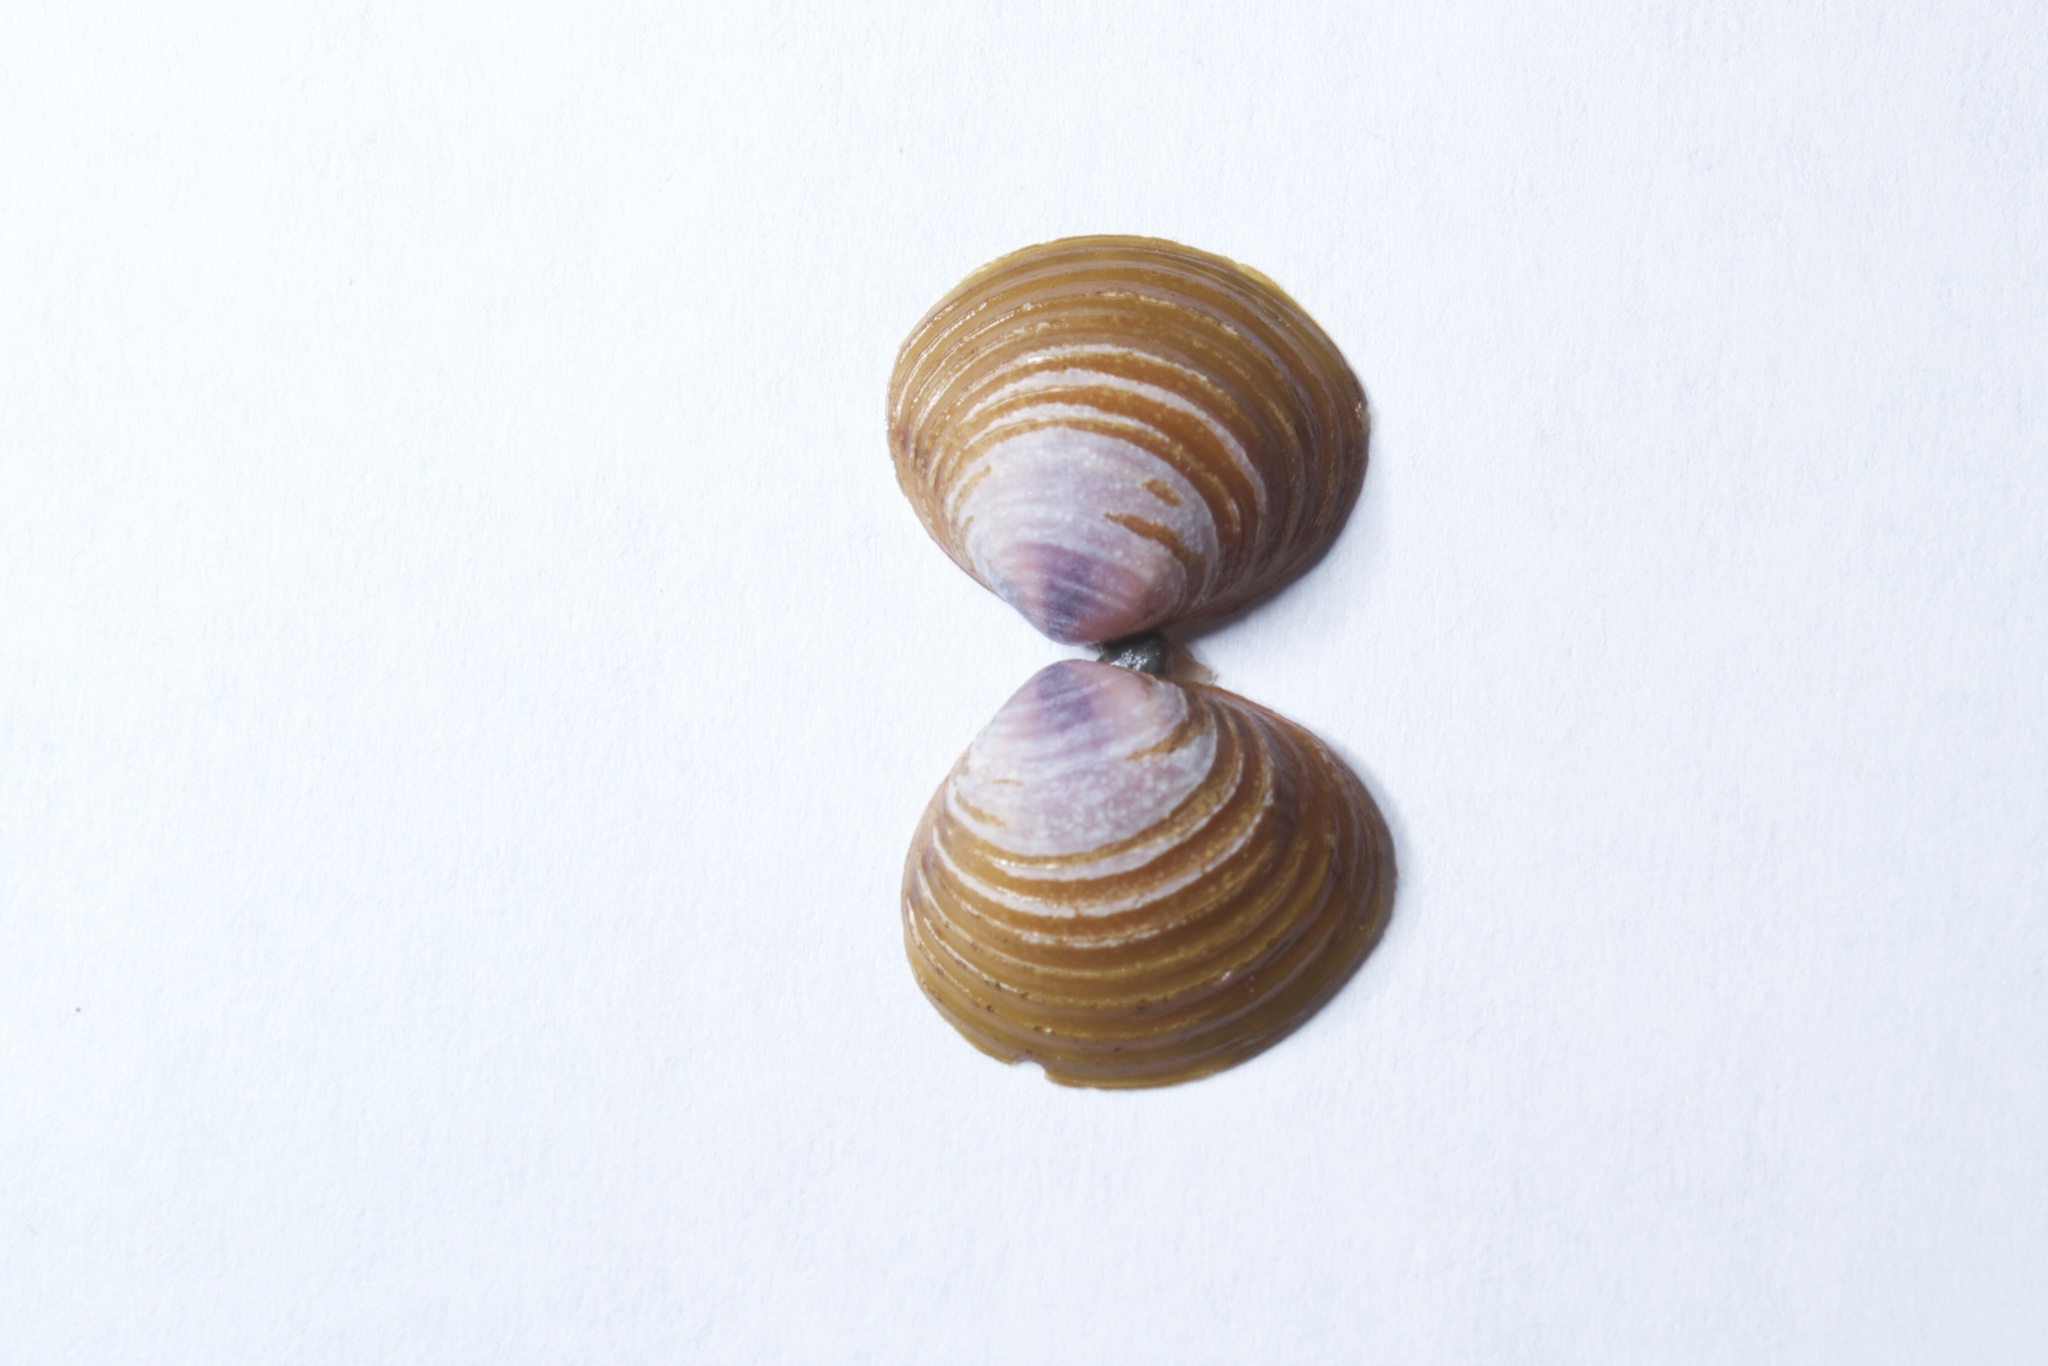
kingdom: Animalia
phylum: Mollusca
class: Bivalvia
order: Venerida
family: Cyrenidae
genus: Corbicula
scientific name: Corbicula fluminea
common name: Asian clam
